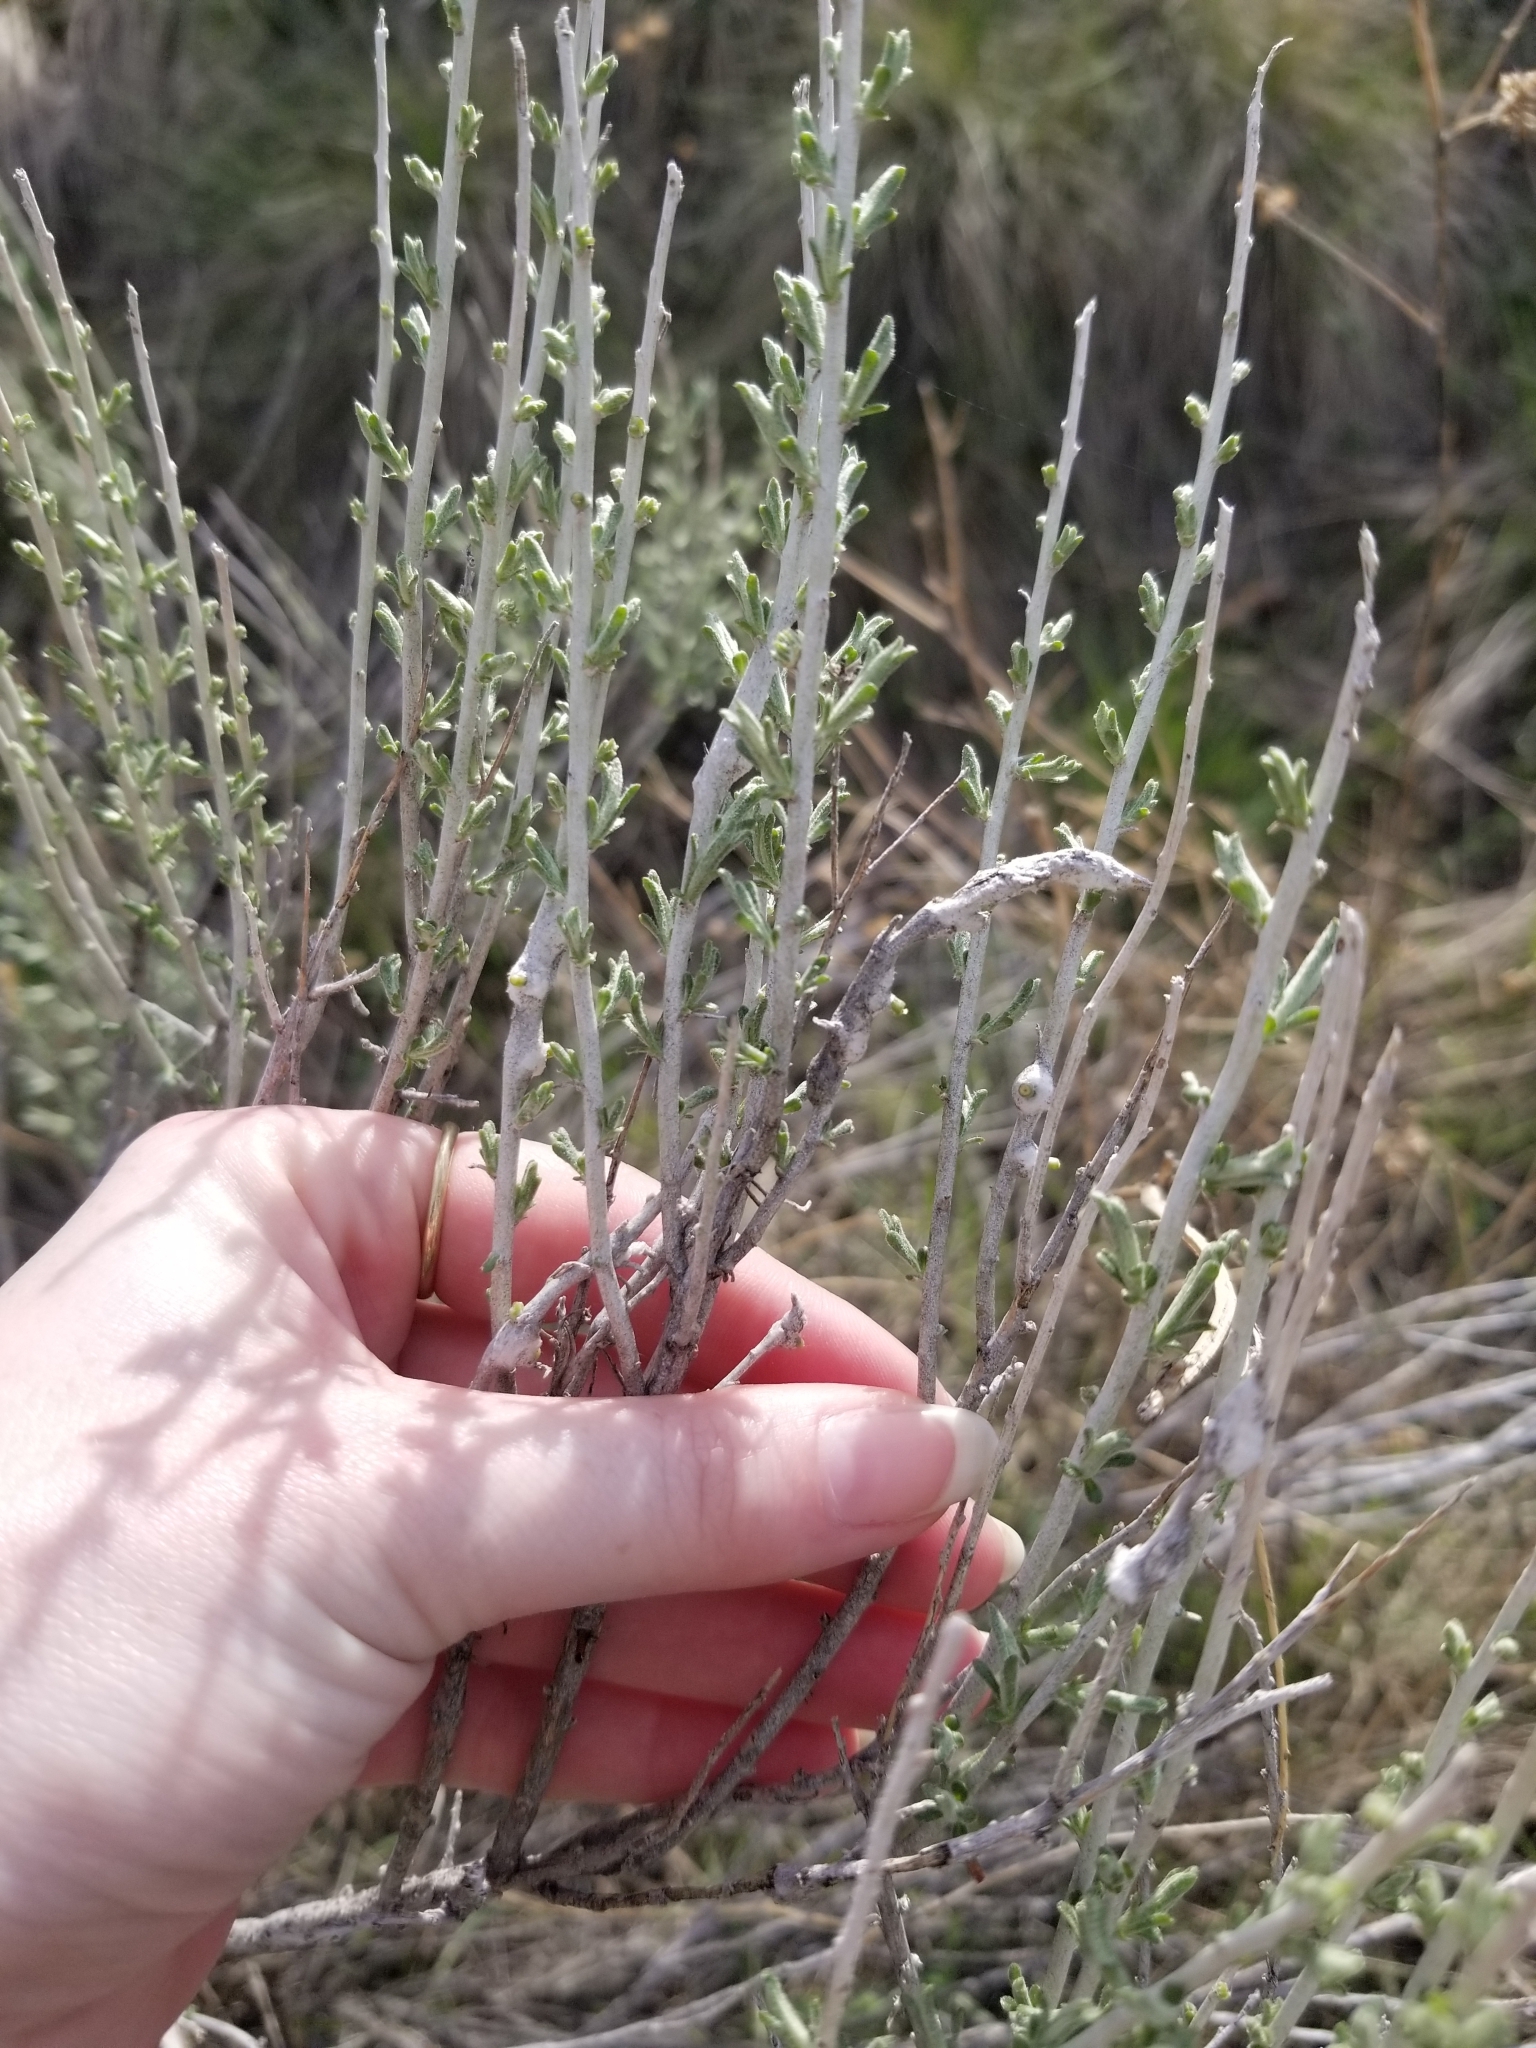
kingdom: Plantae
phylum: Tracheophyta
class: Magnoliopsida
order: Asterales
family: Asteraceae
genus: Ericameria
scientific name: Ericameria nauseosa
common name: Rubber rabbitbrush
